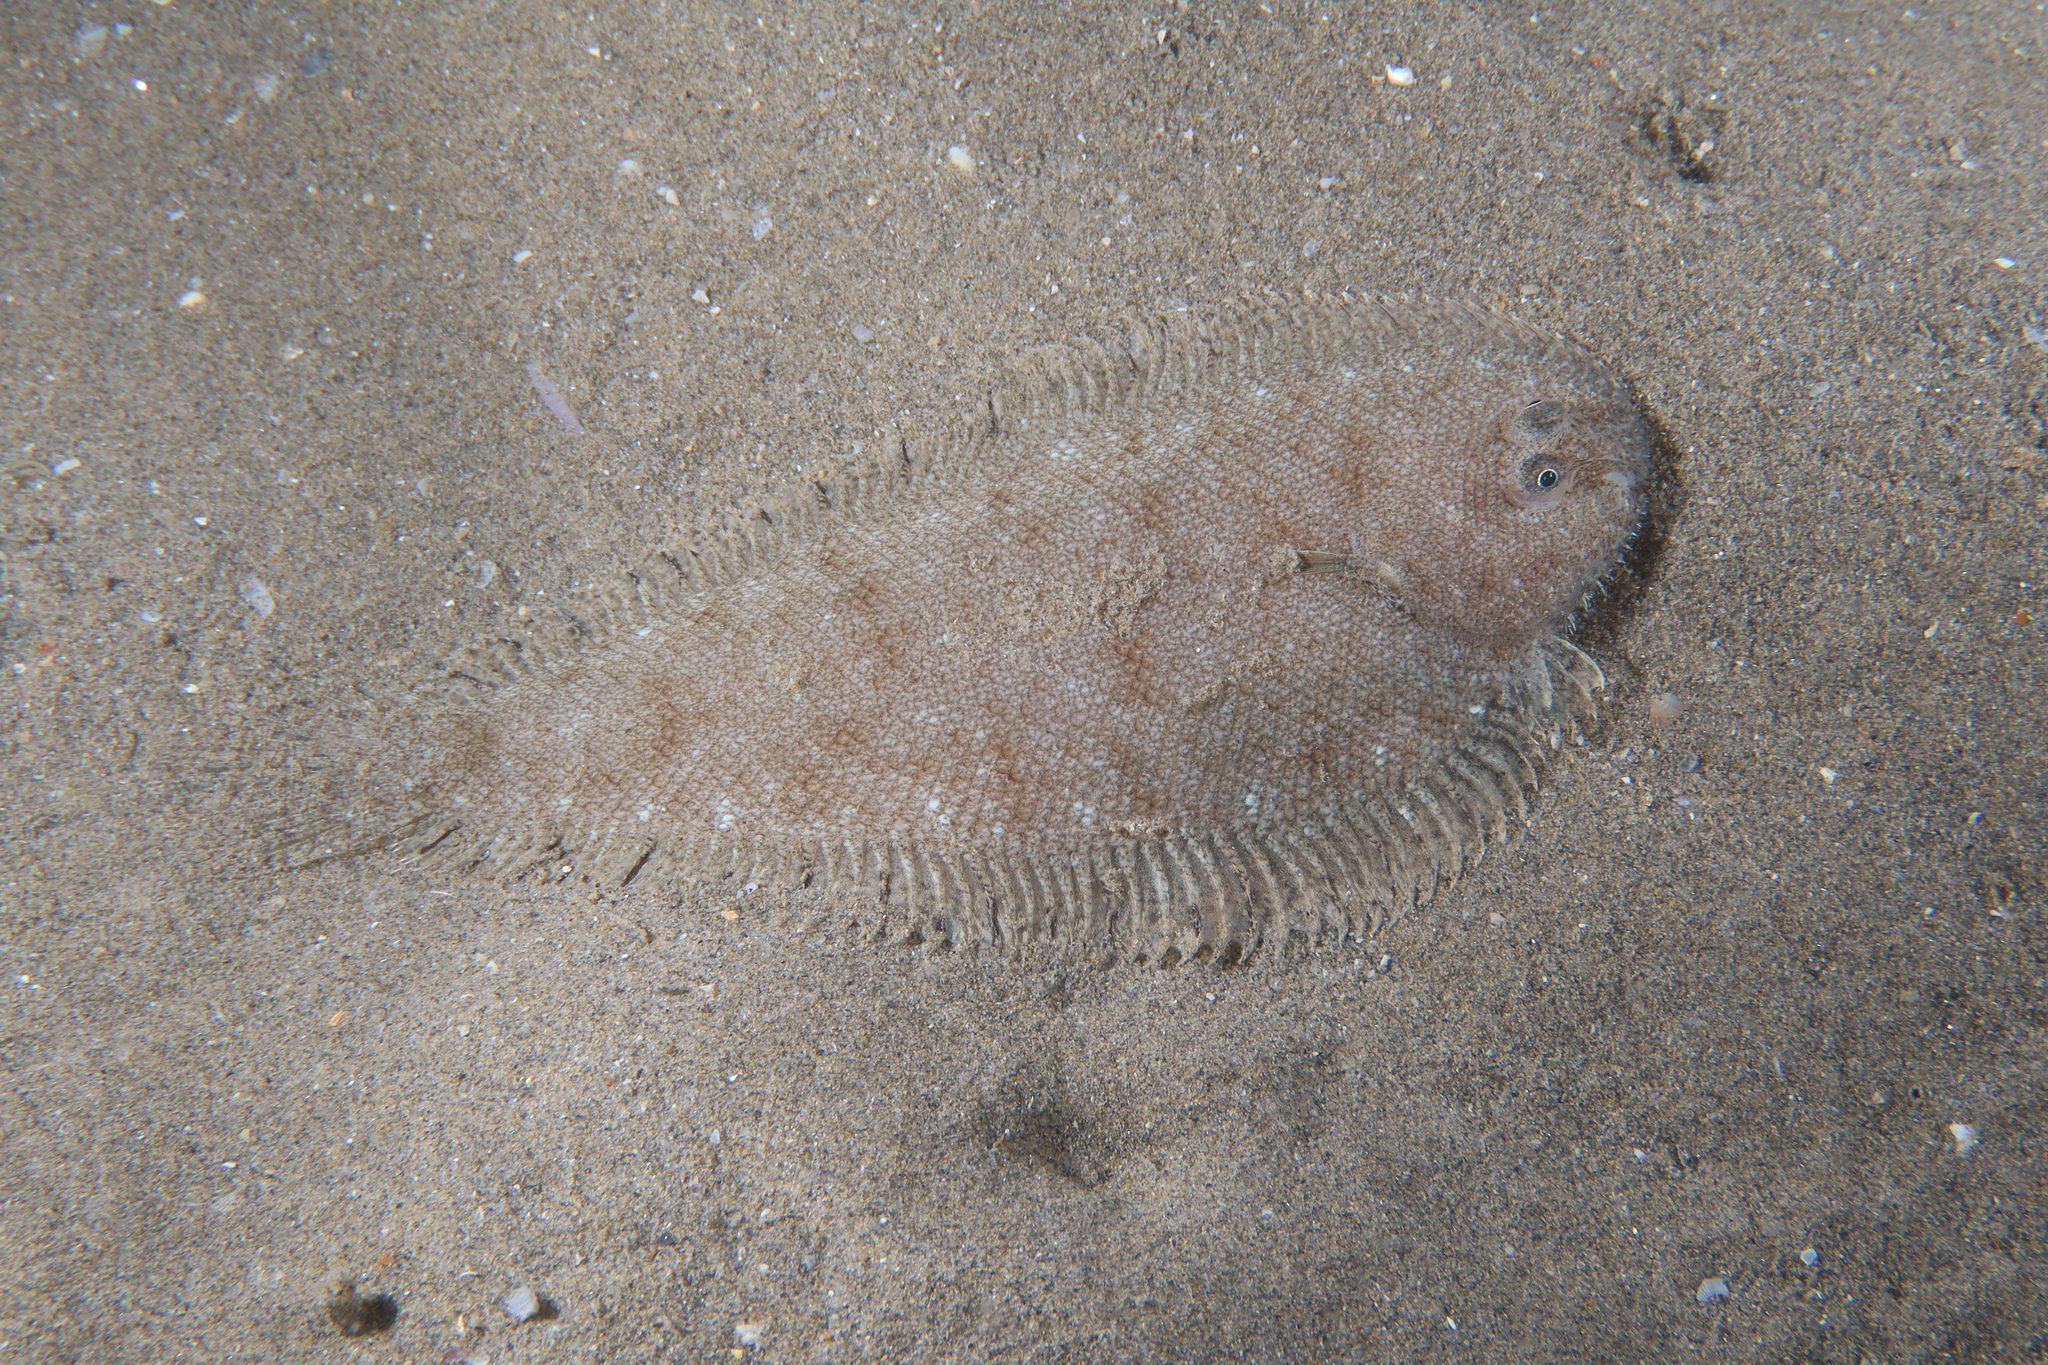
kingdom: Animalia
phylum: Chordata
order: Pleuronectiformes
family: Soleidae
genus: Buglossidium
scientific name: Buglossidium luteum
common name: Solenette
